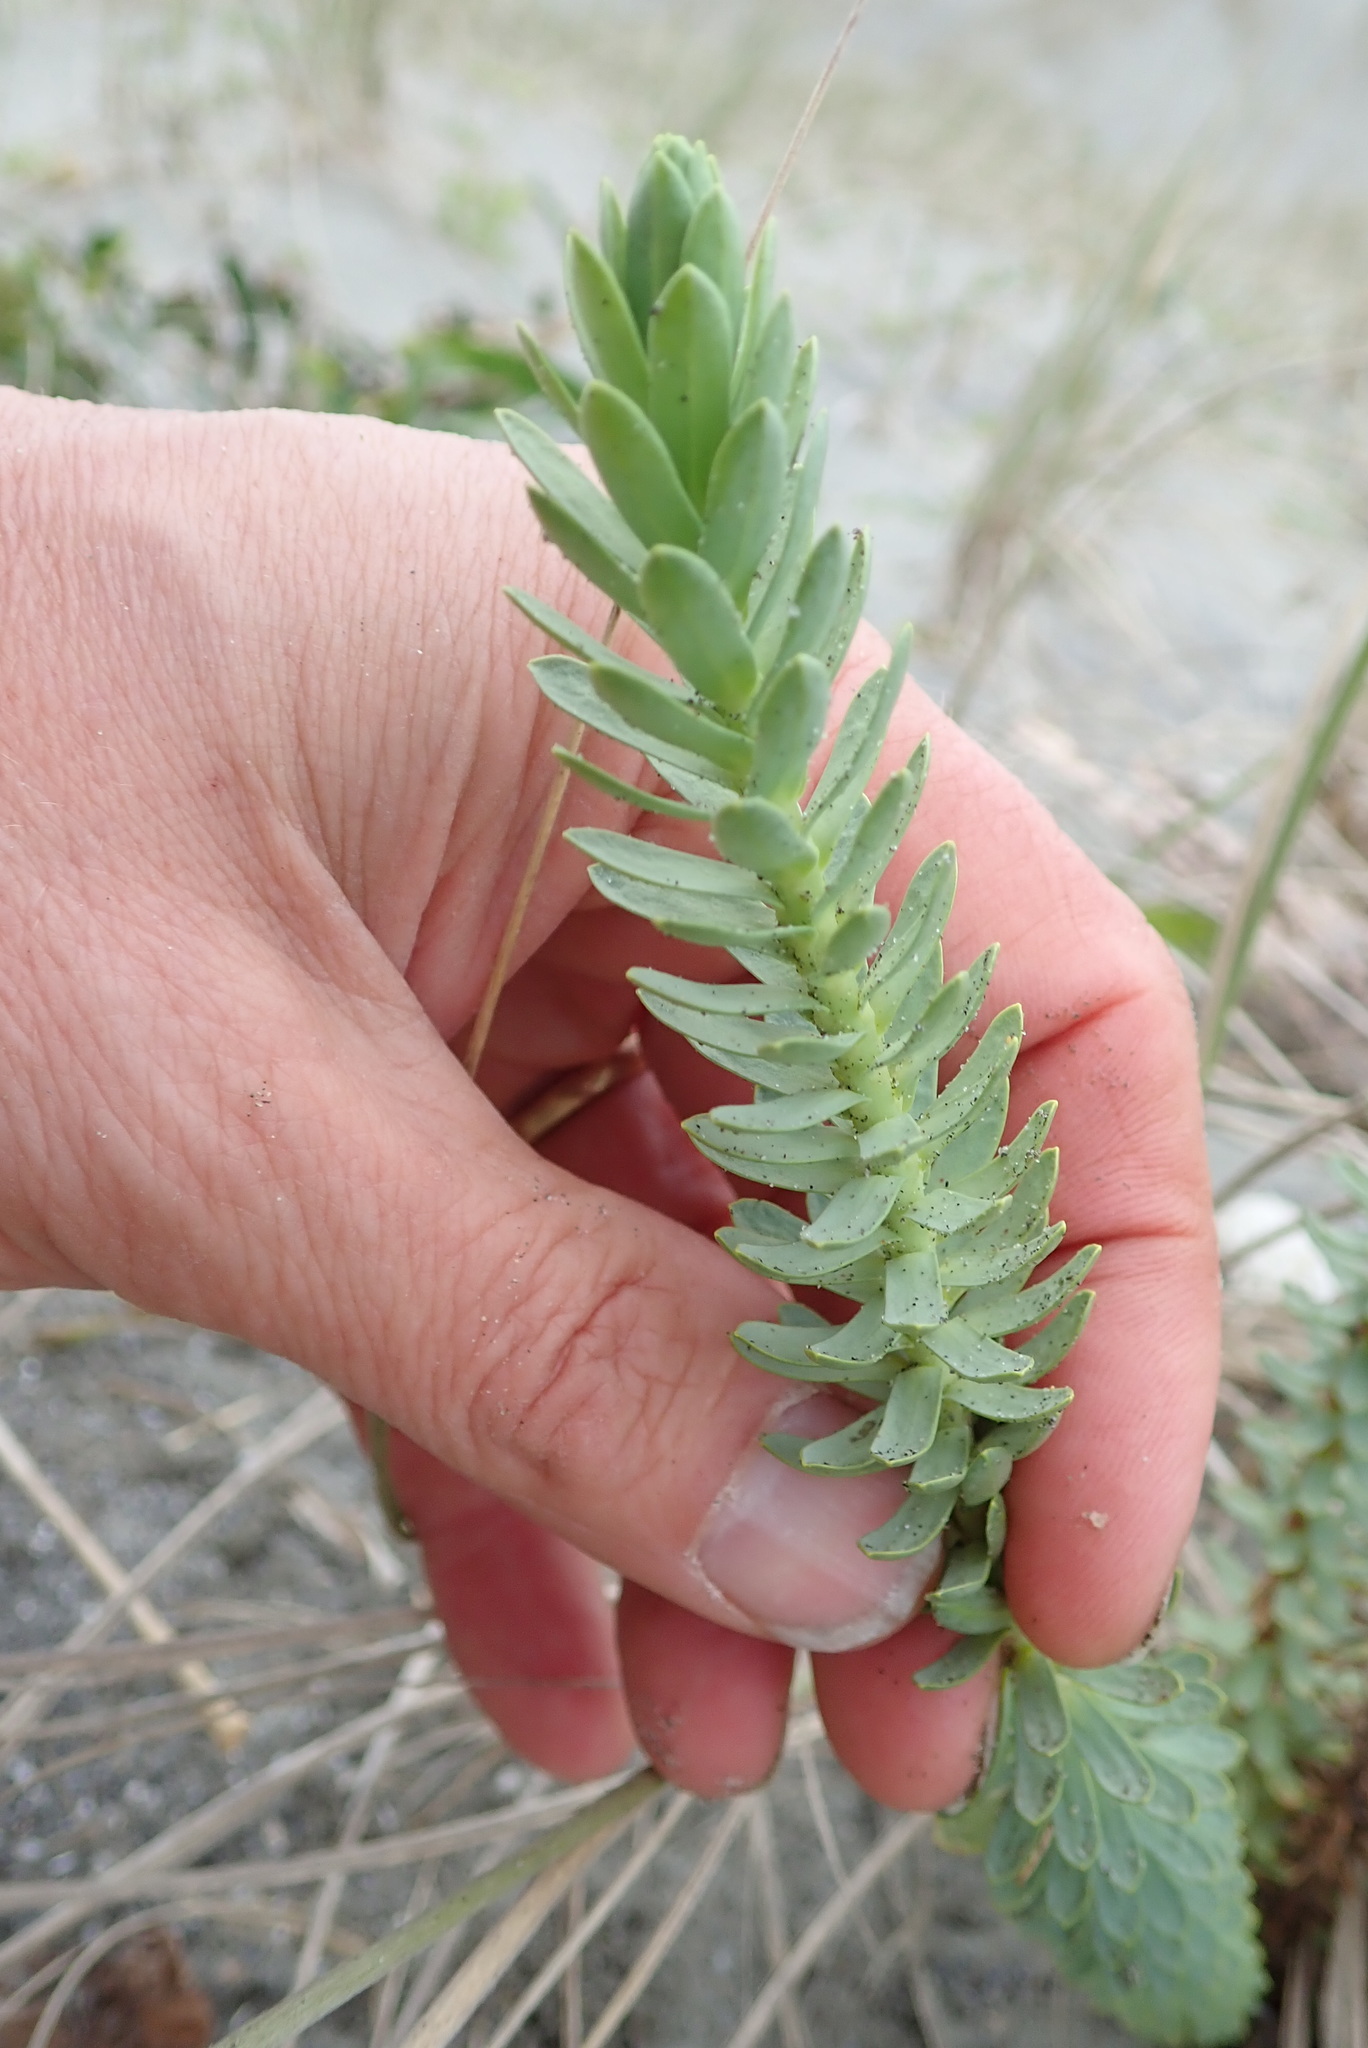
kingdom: Plantae
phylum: Tracheophyta
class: Magnoliopsida
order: Malpighiales
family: Euphorbiaceae
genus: Euphorbia
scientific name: Euphorbia paralias
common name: Sea spurge
